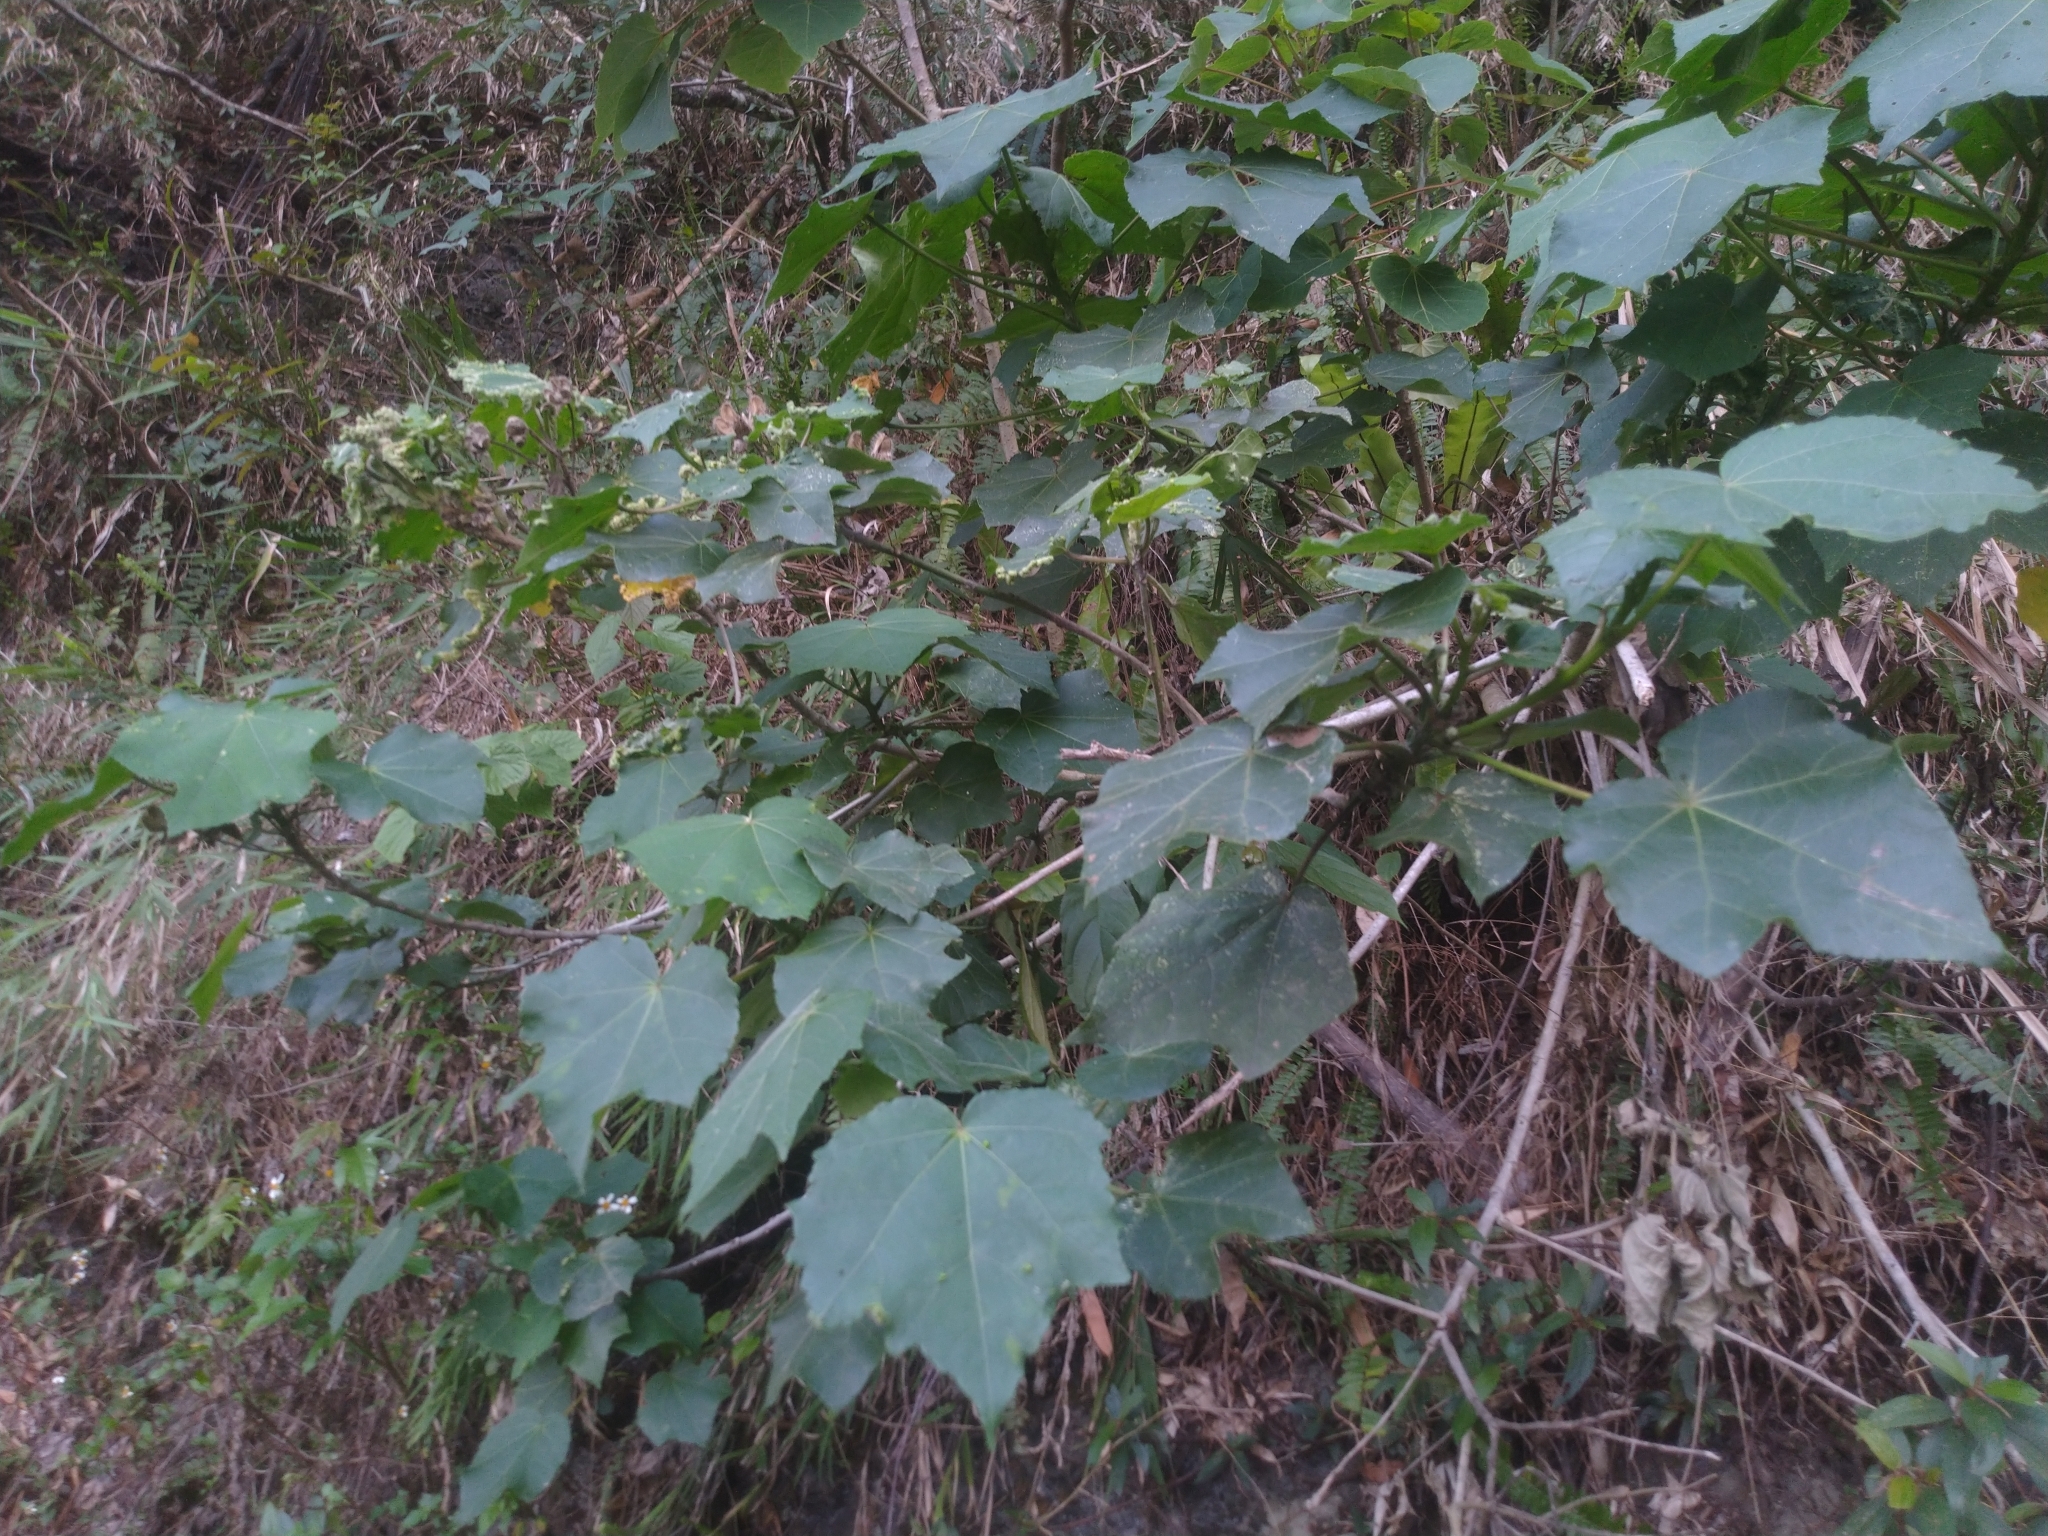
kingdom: Plantae
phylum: Tracheophyta
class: Magnoliopsida
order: Malvales
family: Malvaceae
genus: Hibiscus
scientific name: Hibiscus taiwanensis
